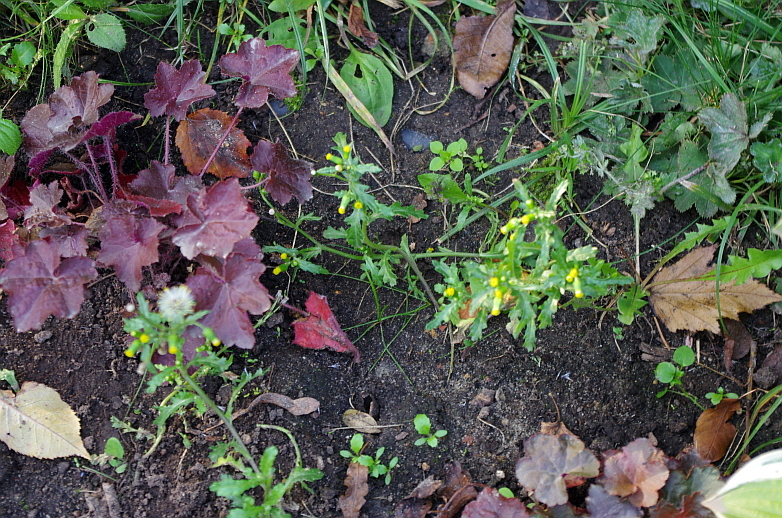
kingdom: Plantae
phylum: Tracheophyta
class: Magnoliopsida
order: Asterales
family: Asteraceae
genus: Senecio
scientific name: Senecio vulgaris
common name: Old-man-in-the-spring
